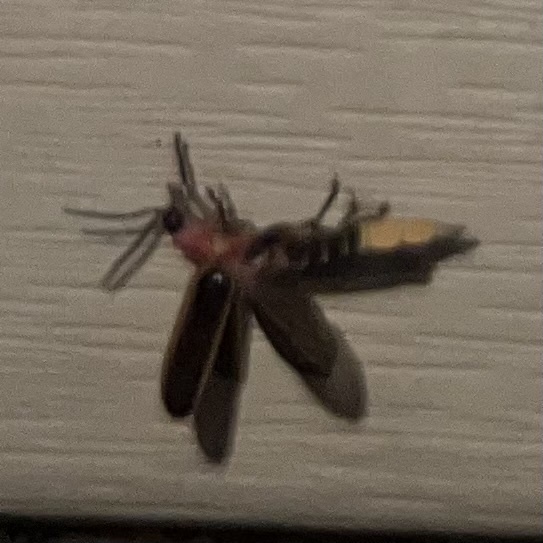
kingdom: Animalia
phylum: Arthropoda
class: Insecta
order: Coleoptera
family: Lampyridae
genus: Photinus
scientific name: Photinus pyralis
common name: Big dipper firefly
